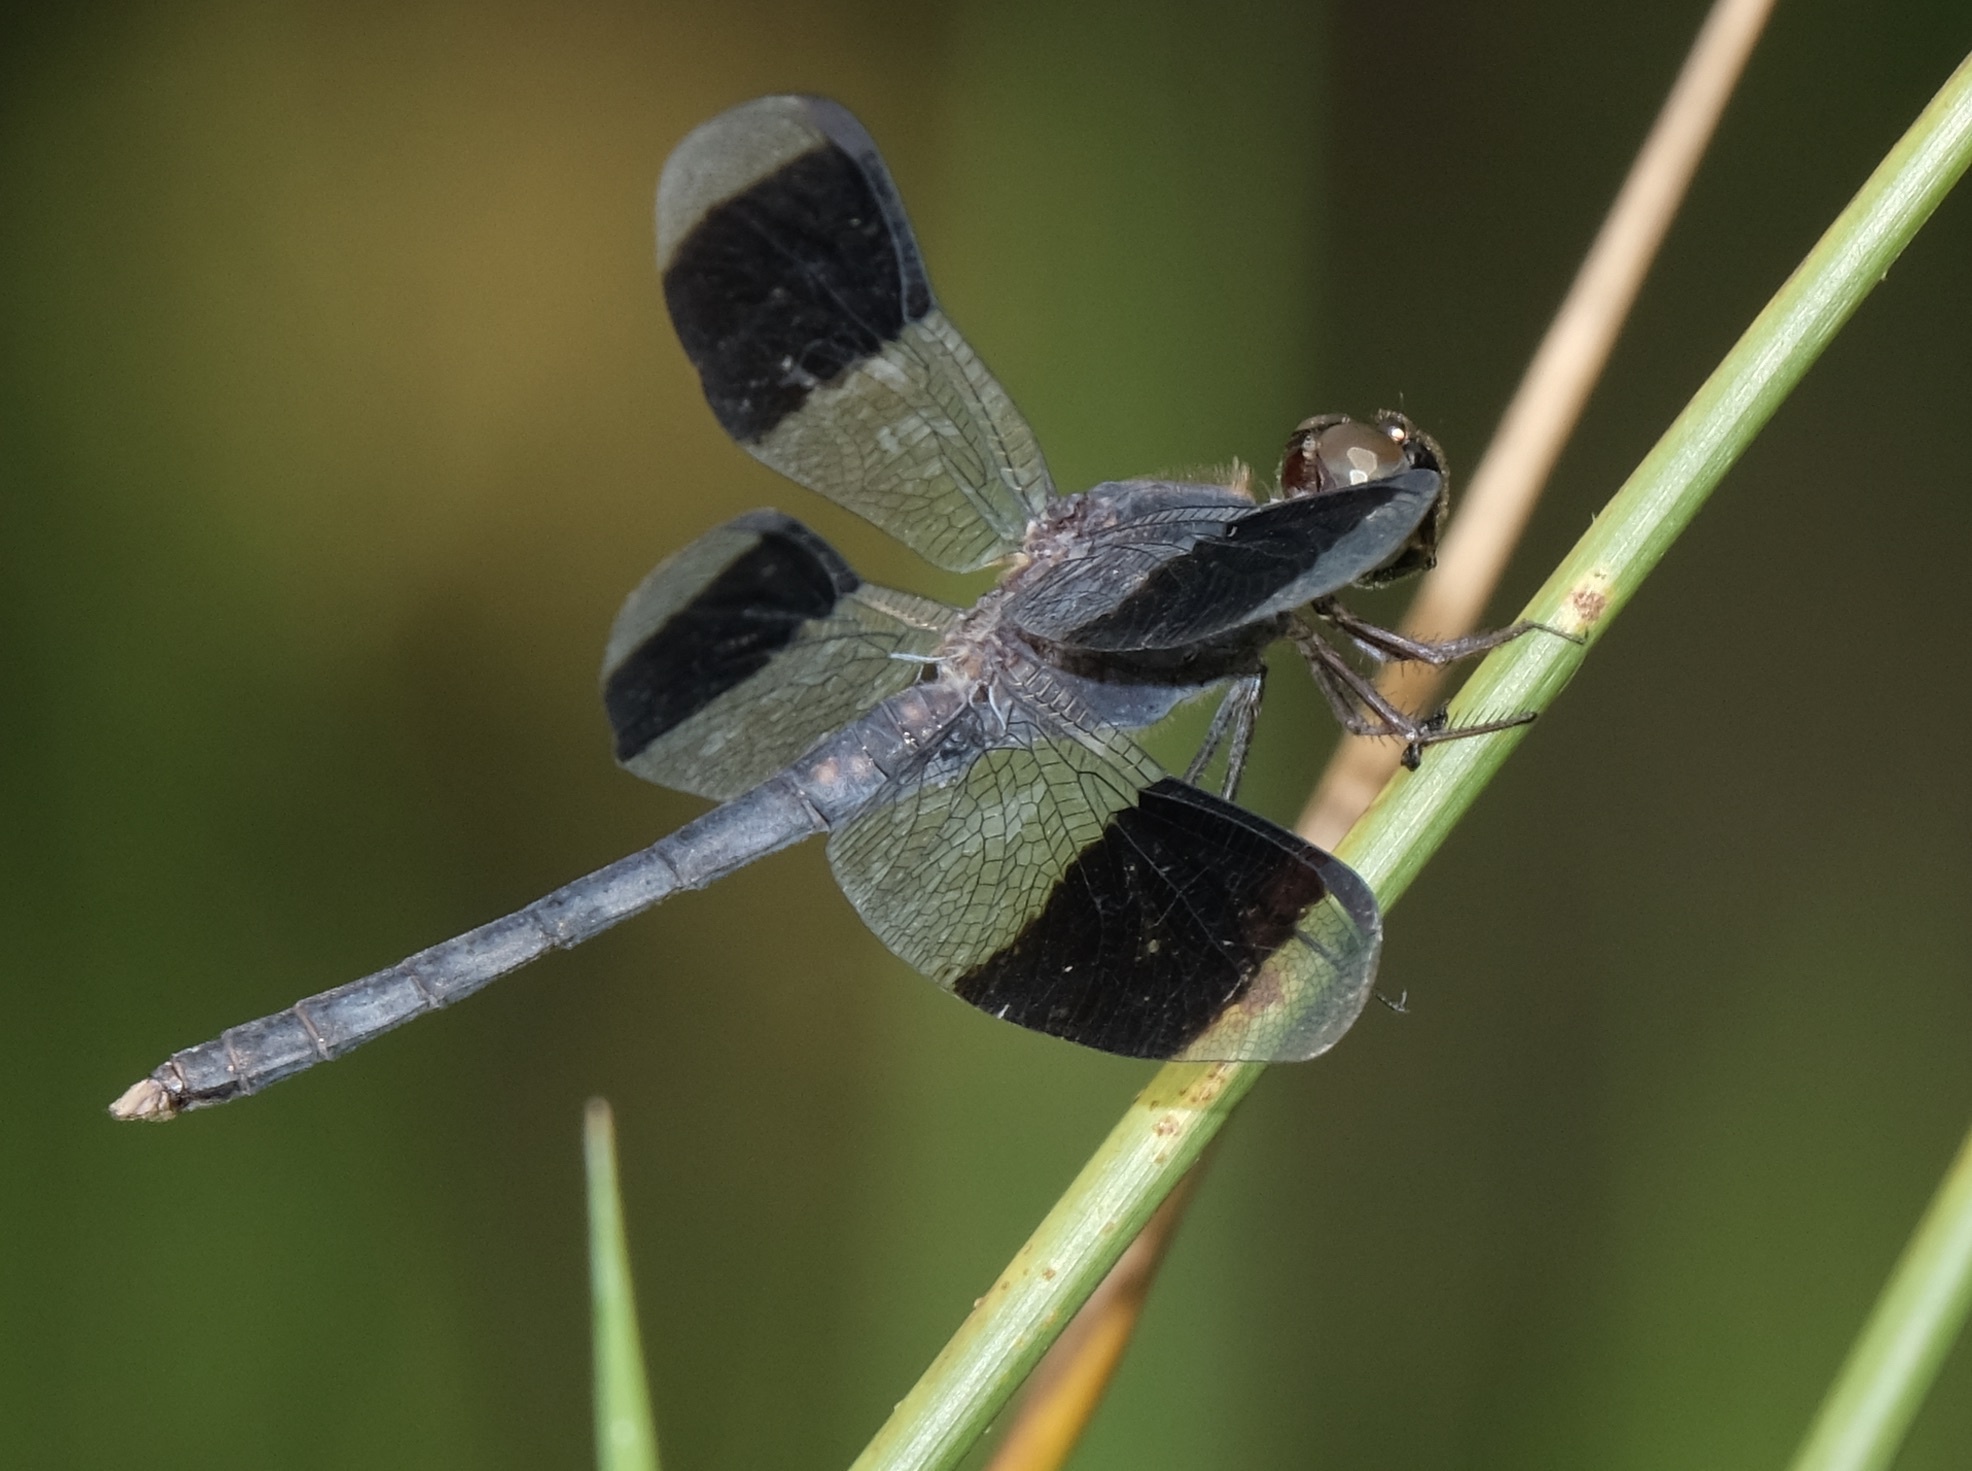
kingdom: Animalia
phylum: Arthropoda
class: Insecta
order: Odonata
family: Libellulidae
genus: Erythrodiplax
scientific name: Erythrodiplax umbrata
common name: Band-winged dragonlet
